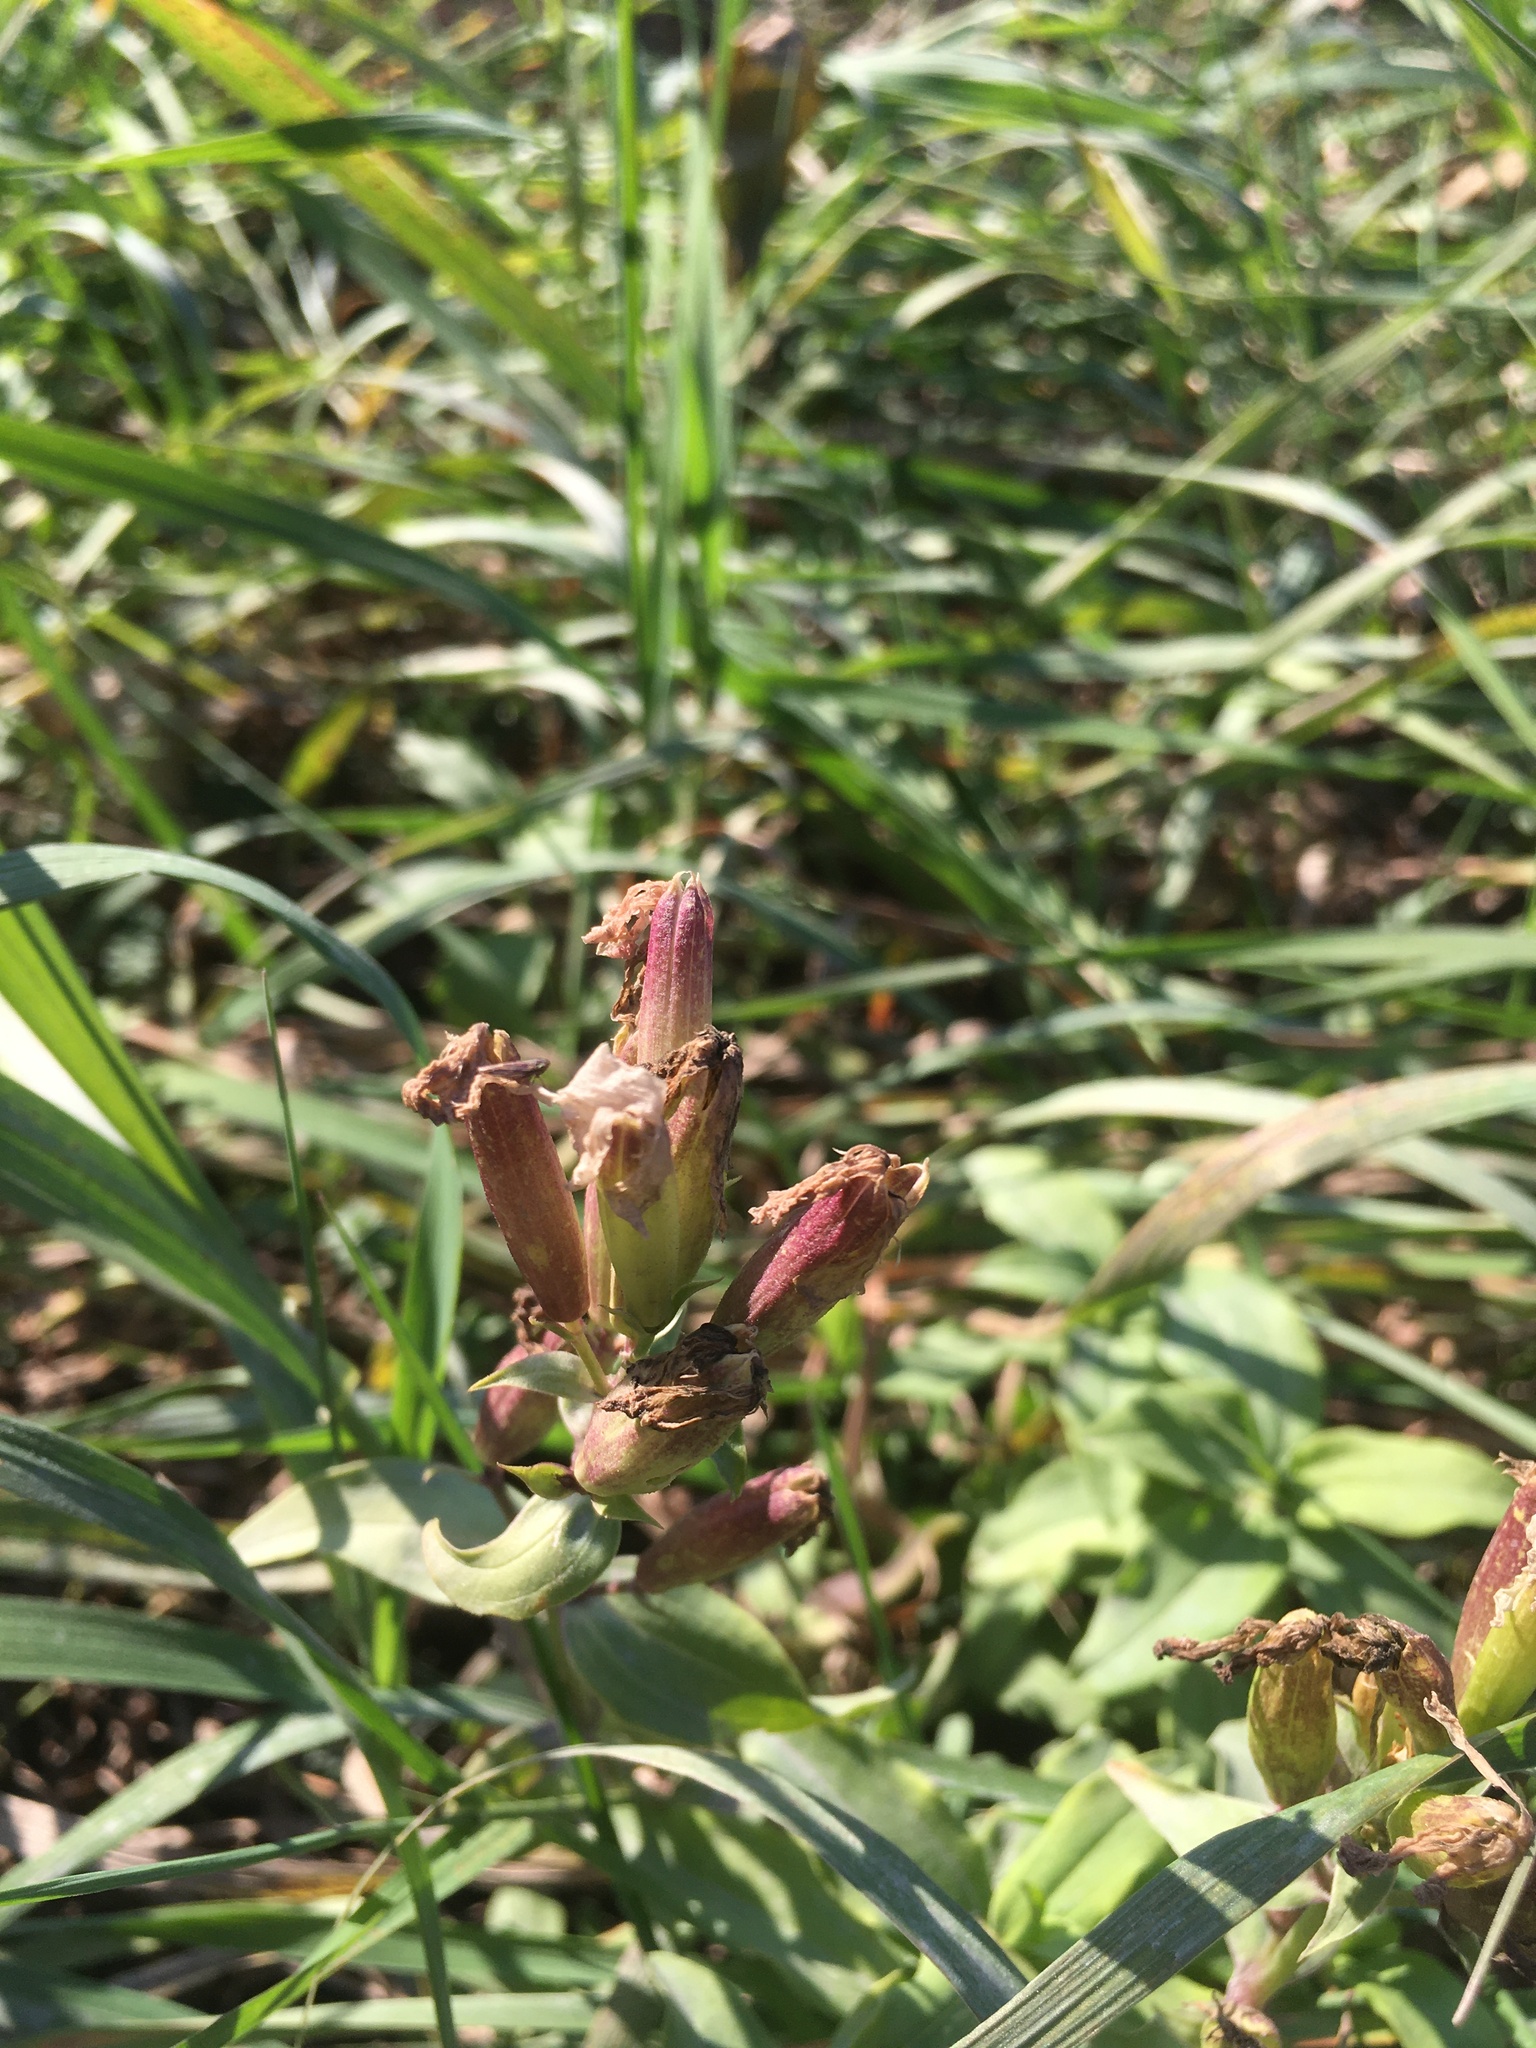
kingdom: Plantae
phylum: Tracheophyta
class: Magnoliopsida
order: Caryophyllales
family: Caryophyllaceae
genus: Saponaria
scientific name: Saponaria officinalis
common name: Soapwort
